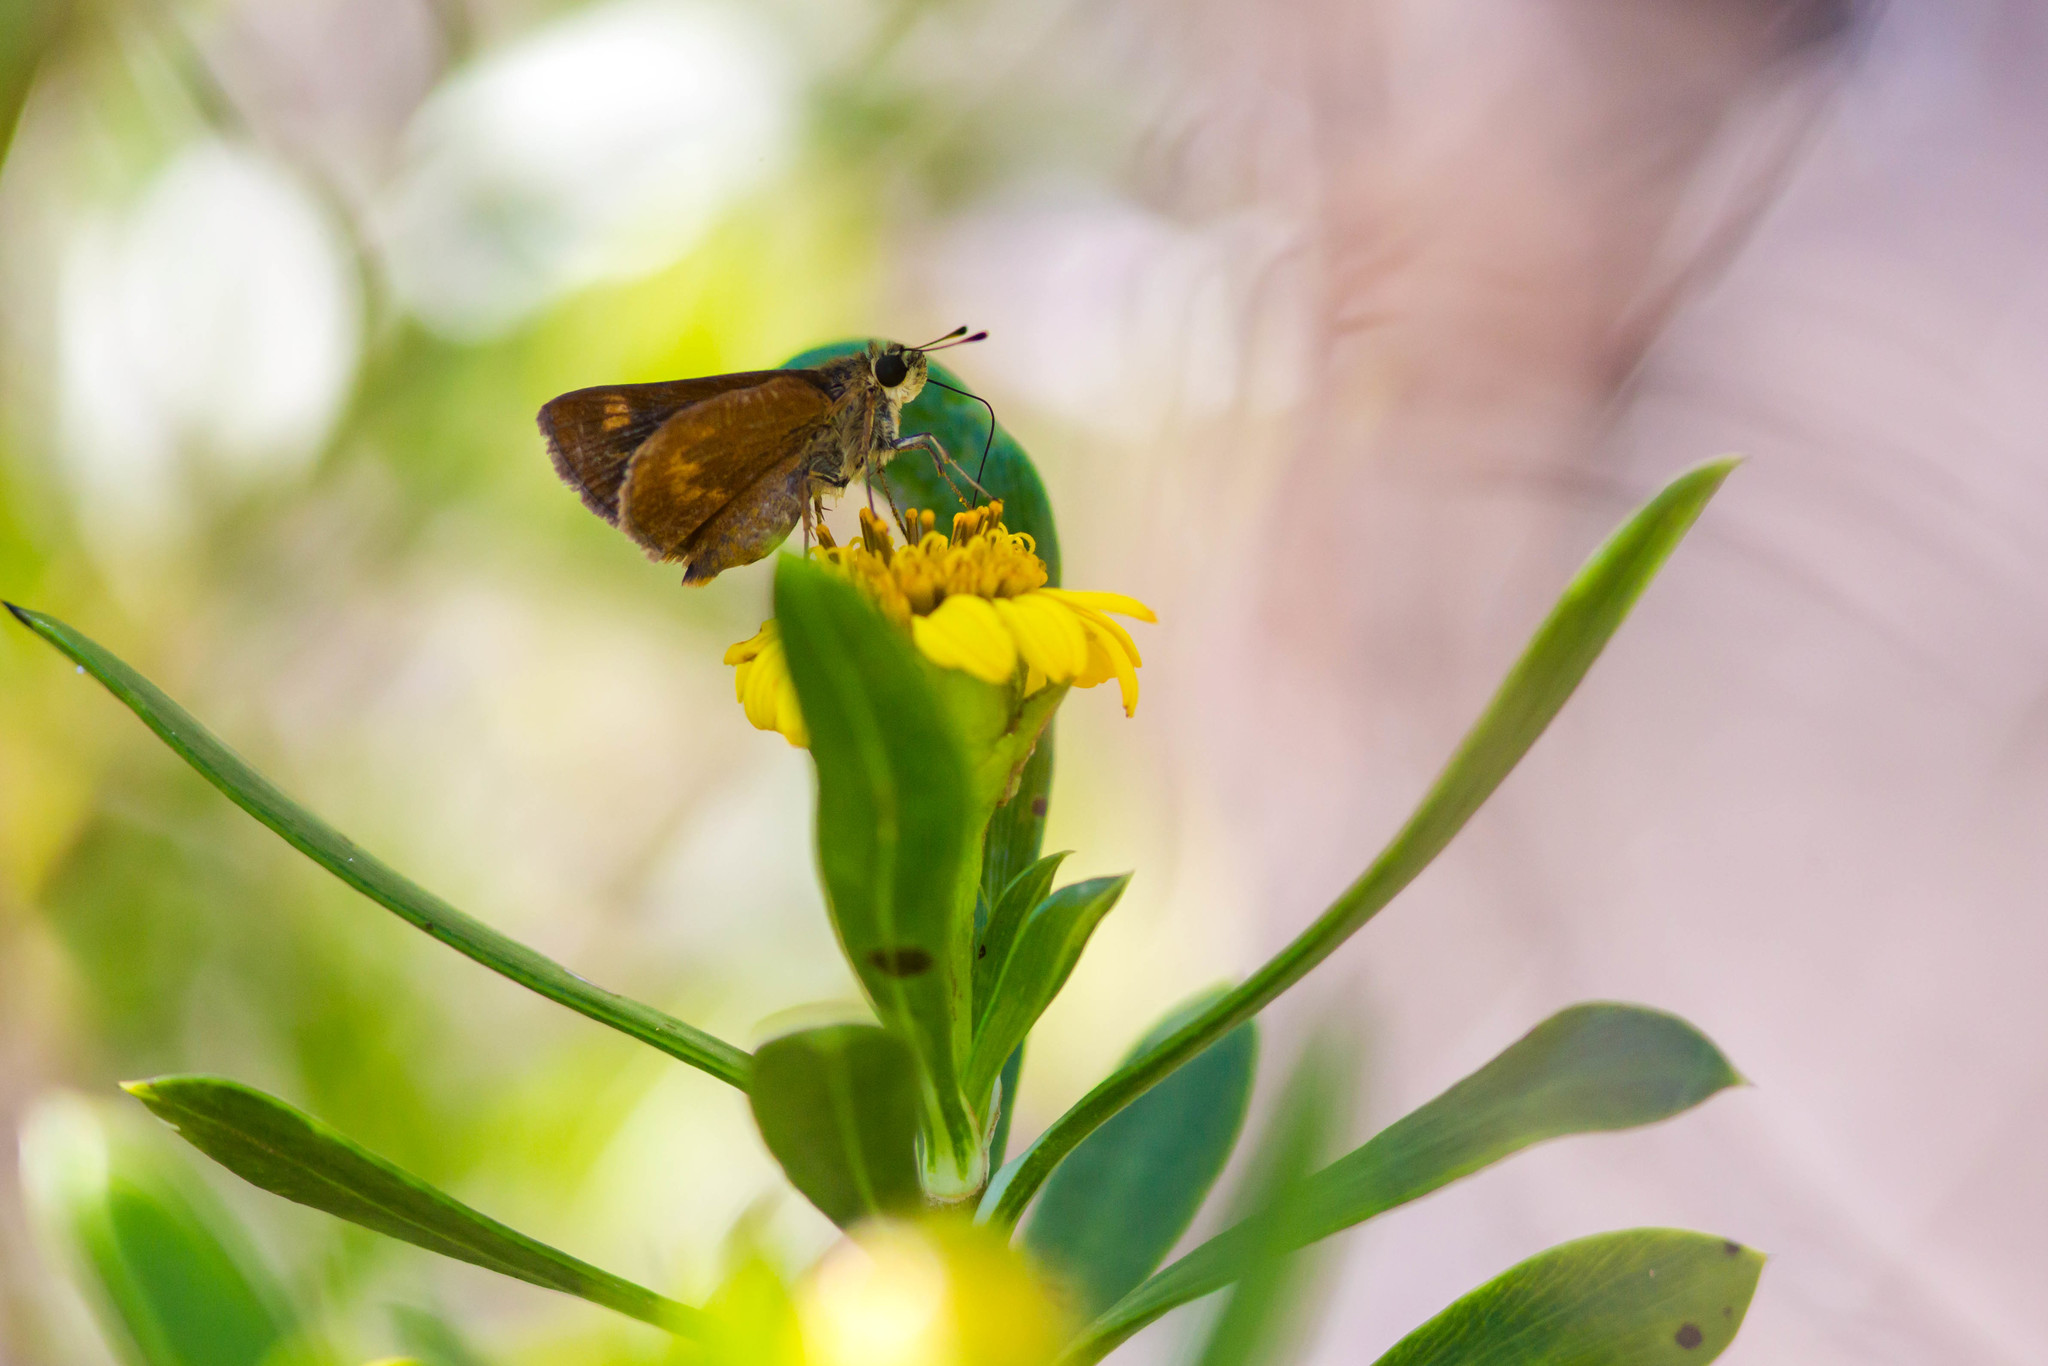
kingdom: Animalia
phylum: Arthropoda
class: Insecta
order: Lepidoptera
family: Hesperiidae
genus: Polites
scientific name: Polites otho
